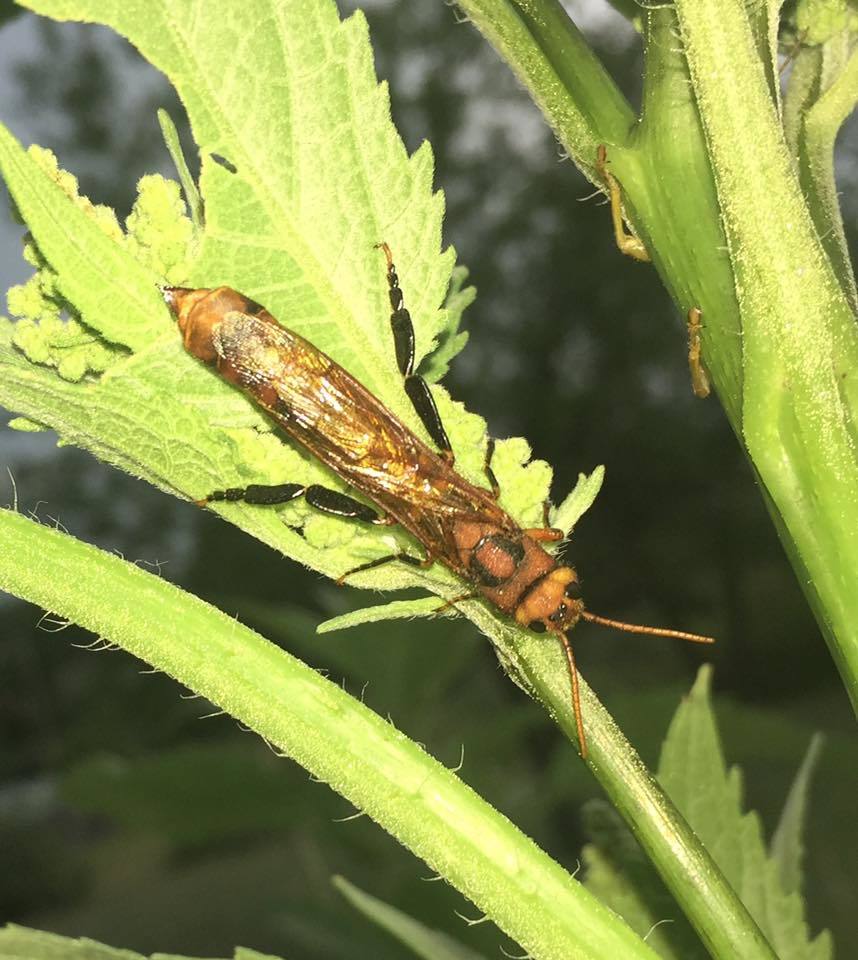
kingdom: Animalia
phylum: Arthropoda
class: Insecta
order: Hymenoptera
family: Siricidae
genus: Tremex
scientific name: Tremex columba
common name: Wasp
